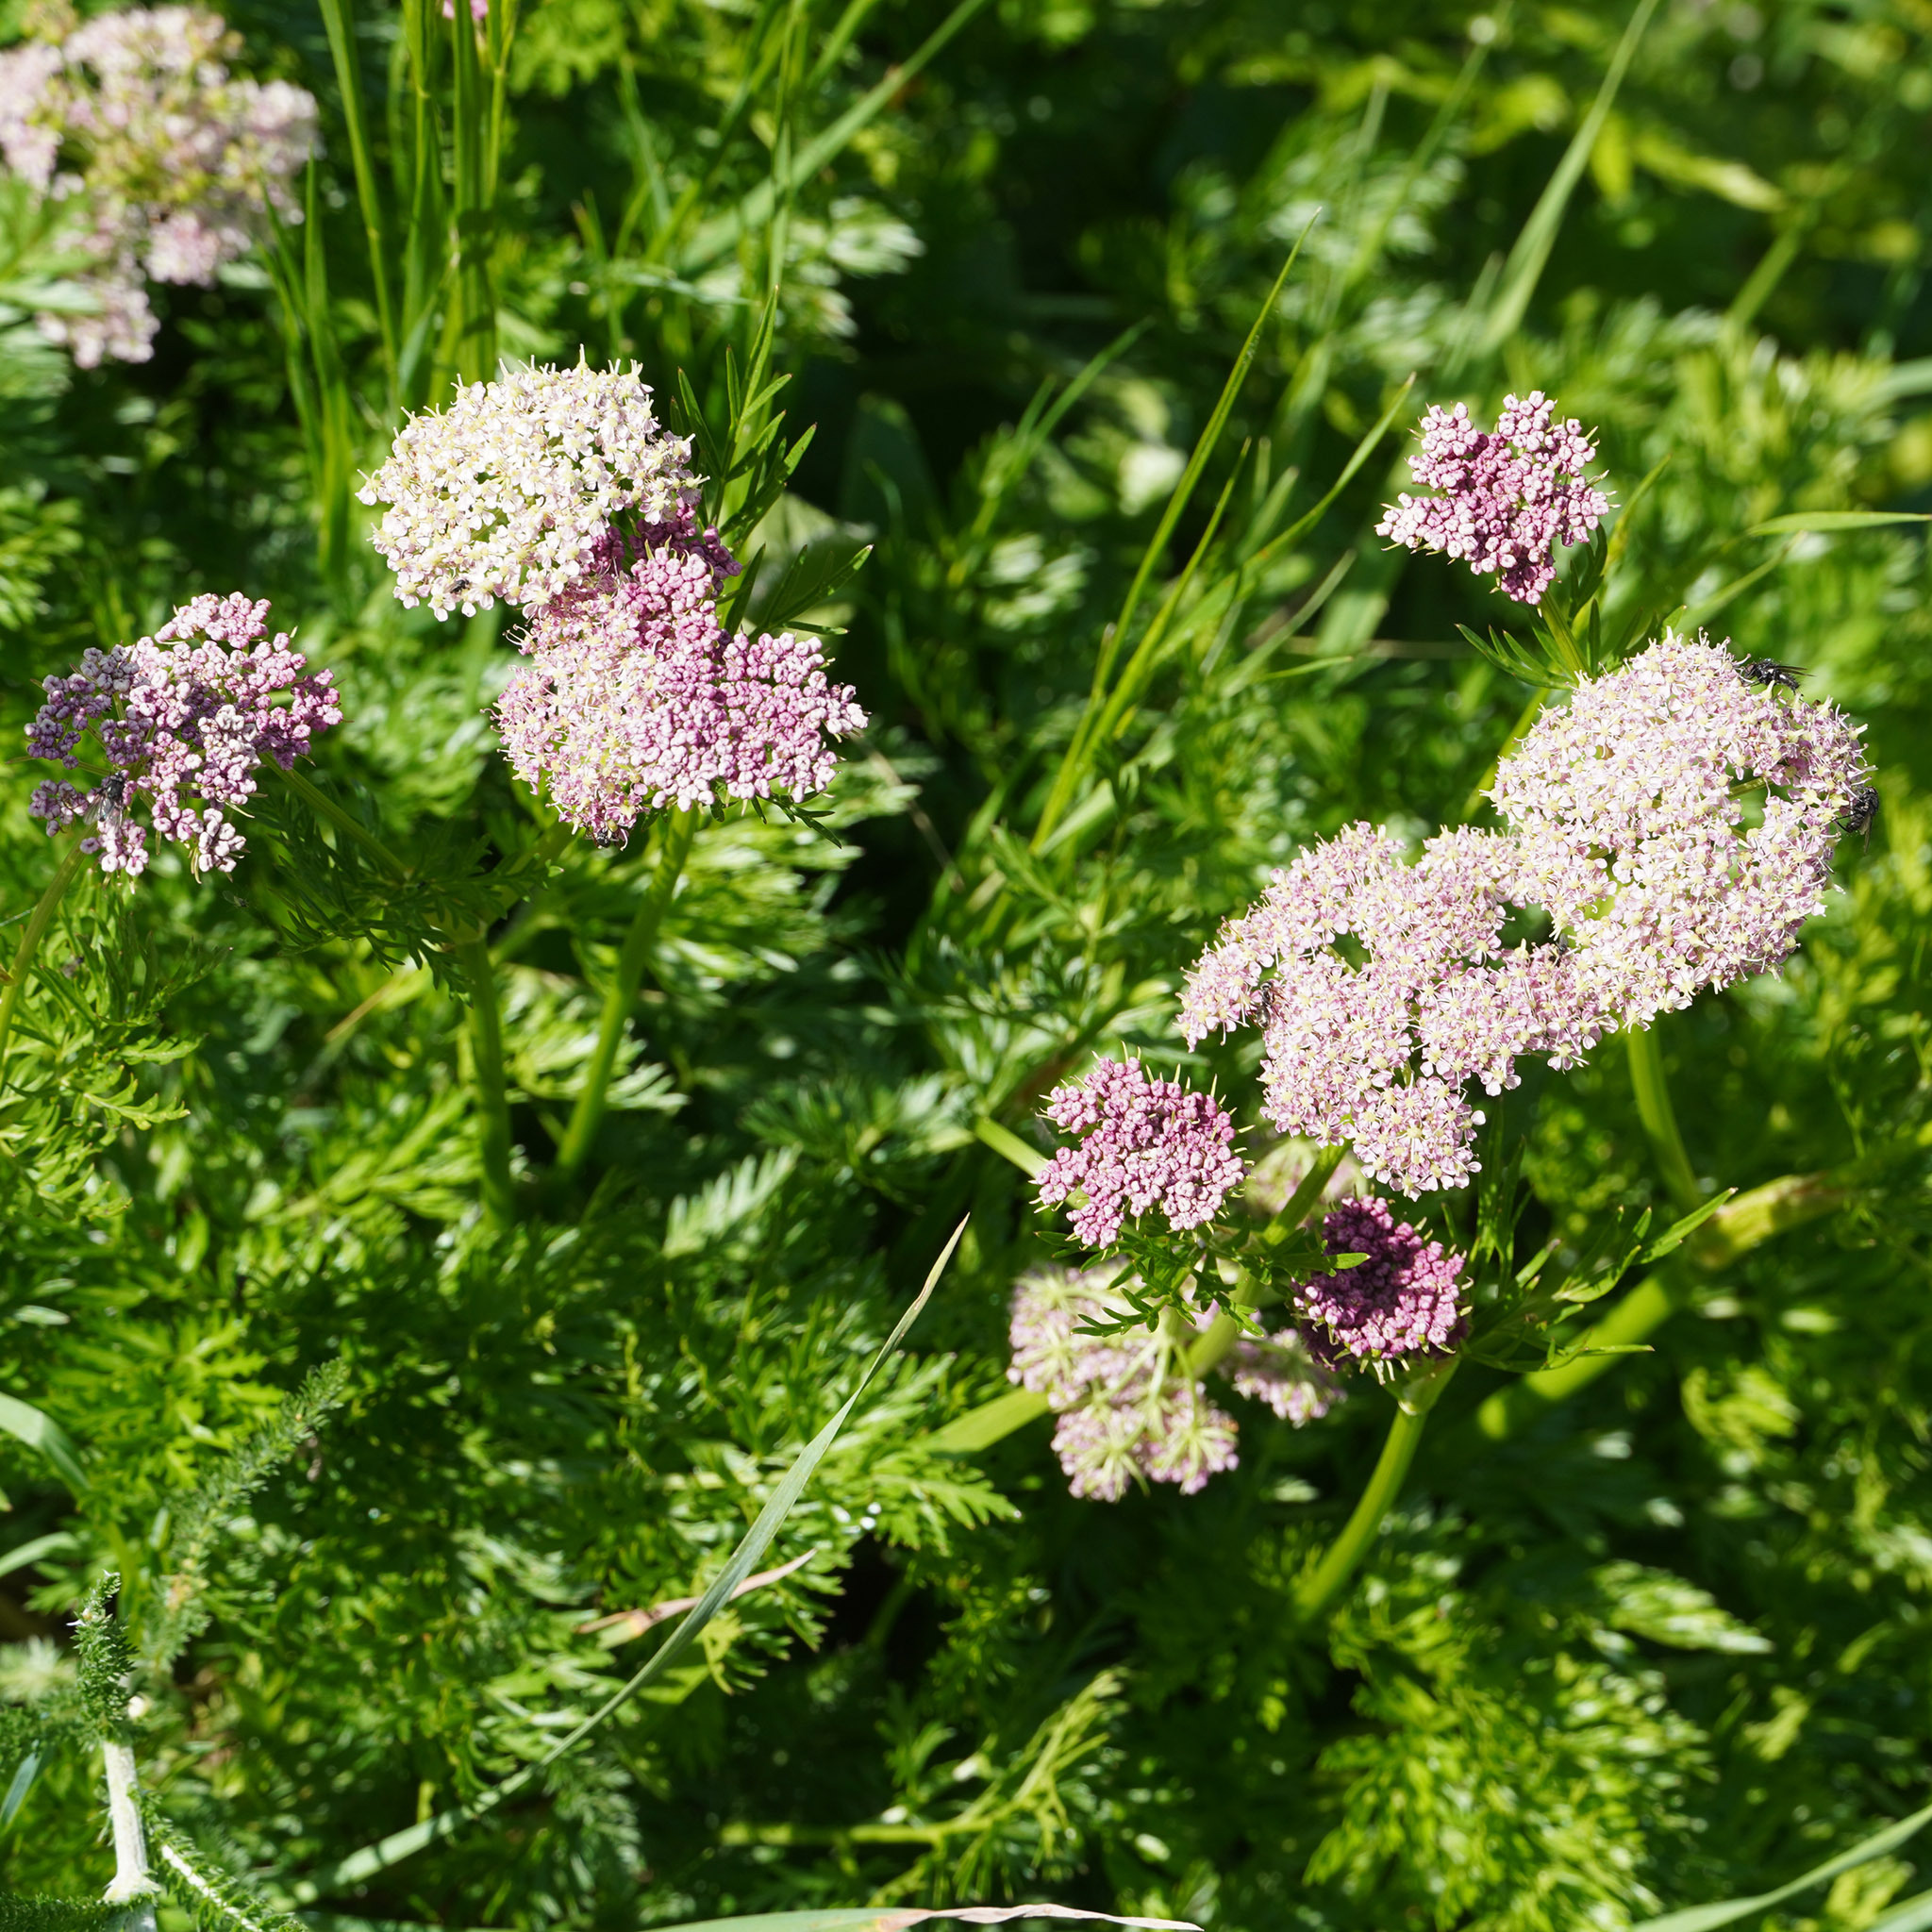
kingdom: Plantae
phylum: Tracheophyta
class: Magnoliopsida
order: Apiales
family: Apiaceae
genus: Mutellina
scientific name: Mutellina adonidifolia
